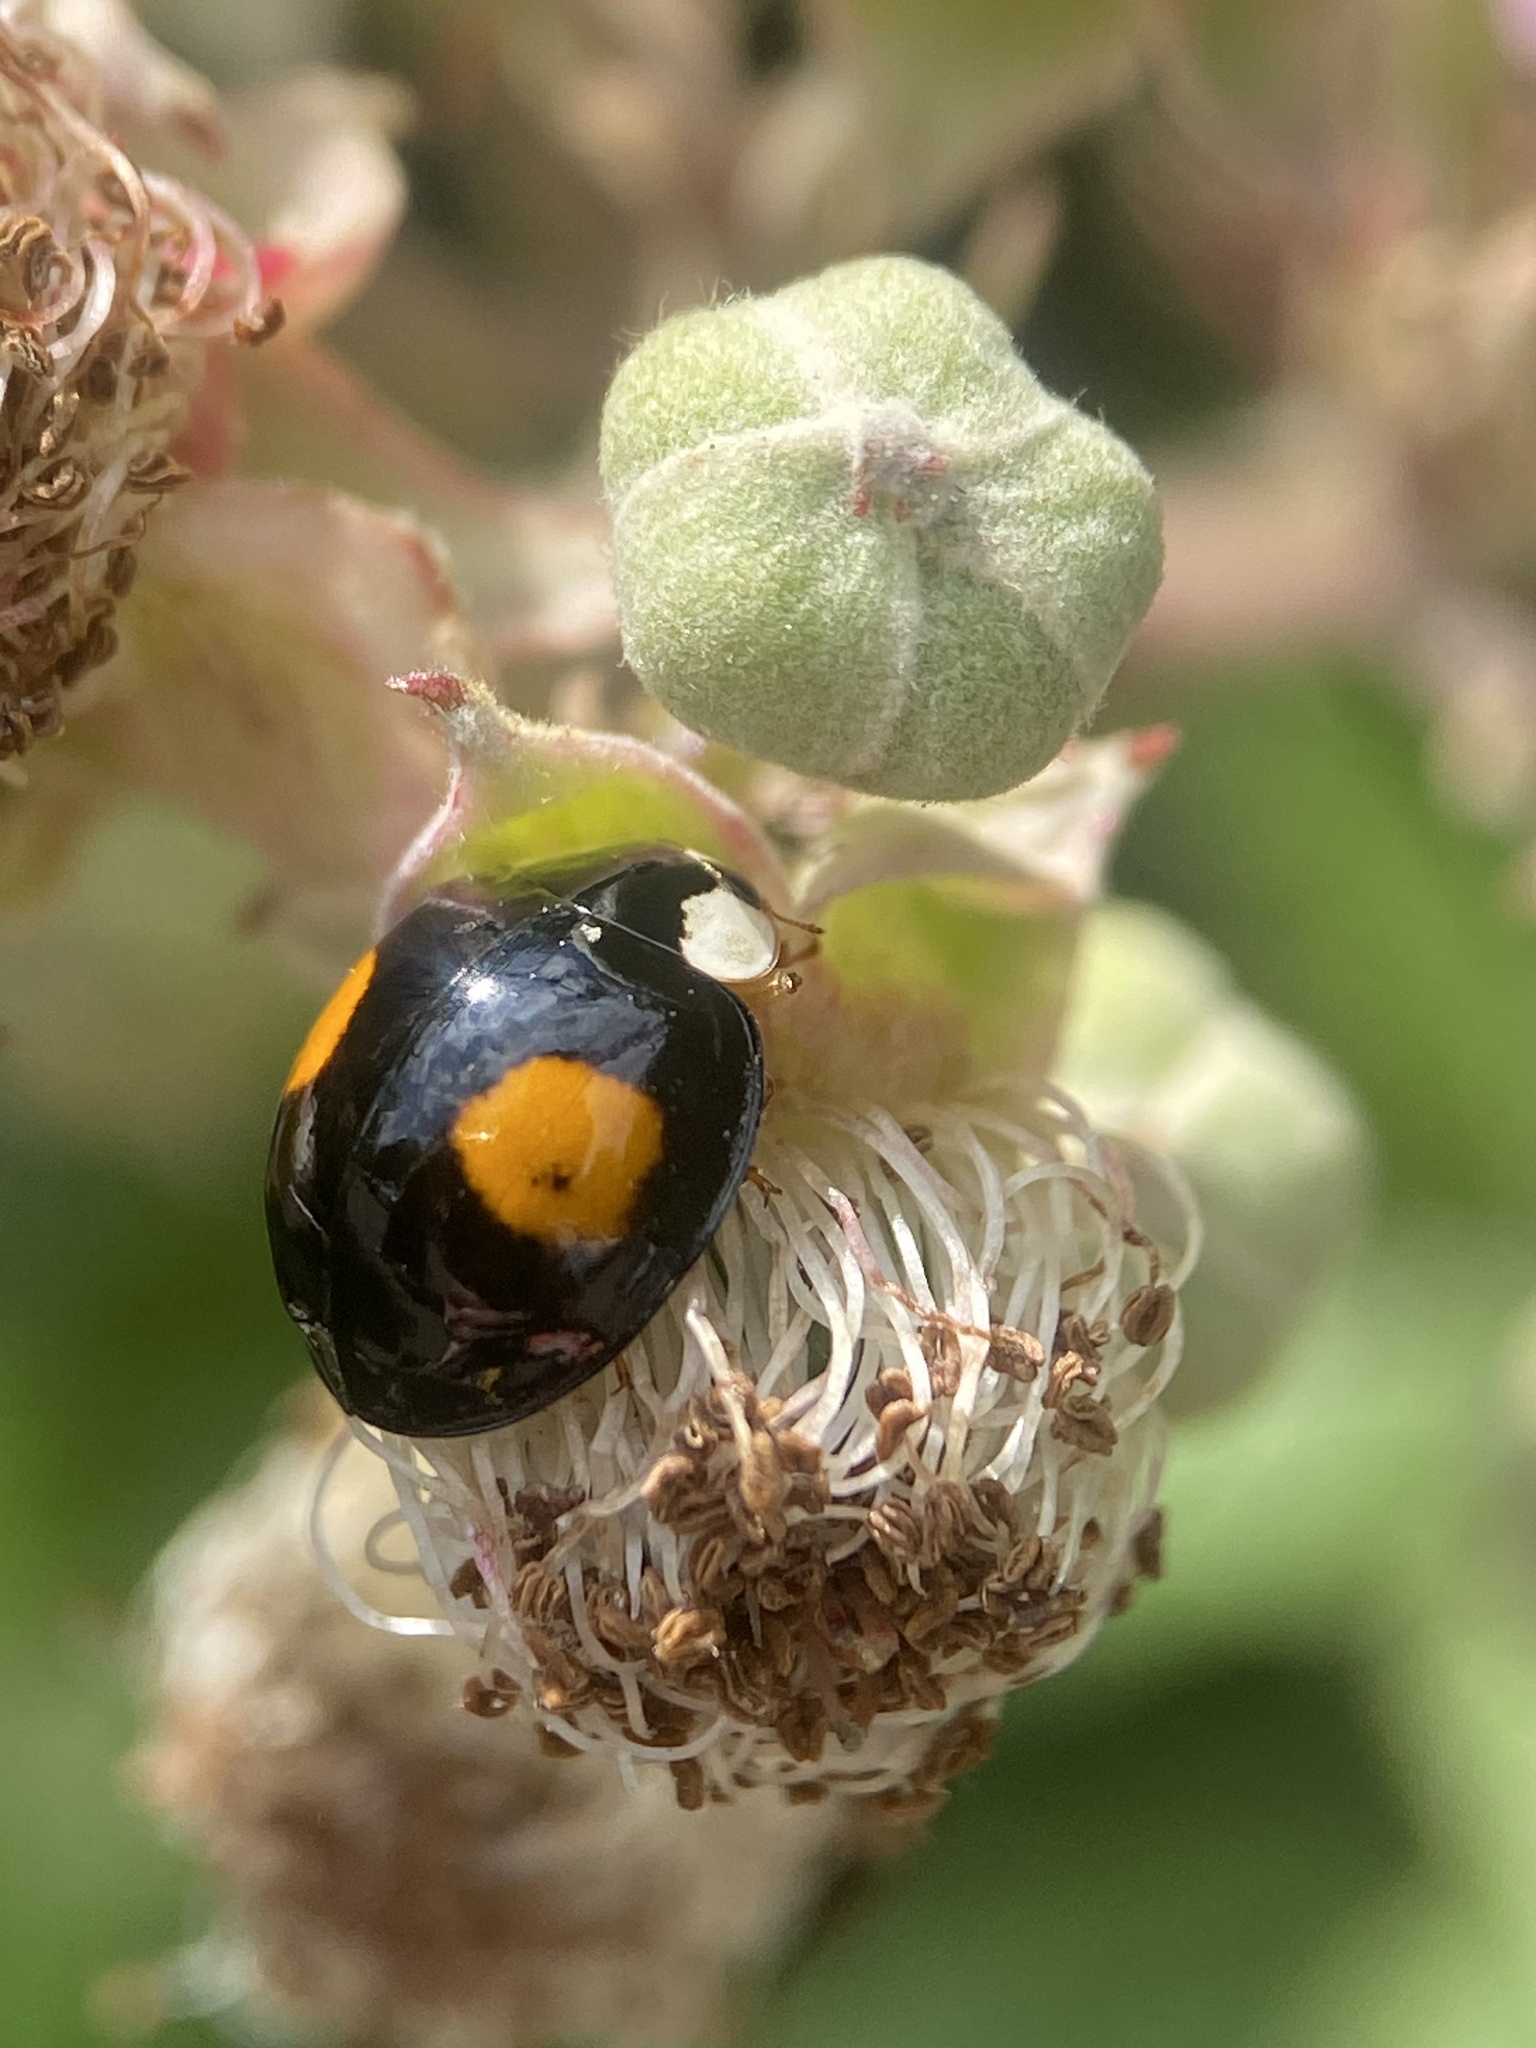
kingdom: Animalia
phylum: Arthropoda
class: Insecta
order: Coleoptera
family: Coccinellidae
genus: Harmonia
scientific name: Harmonia axyridis
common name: Harlequin ladybird
